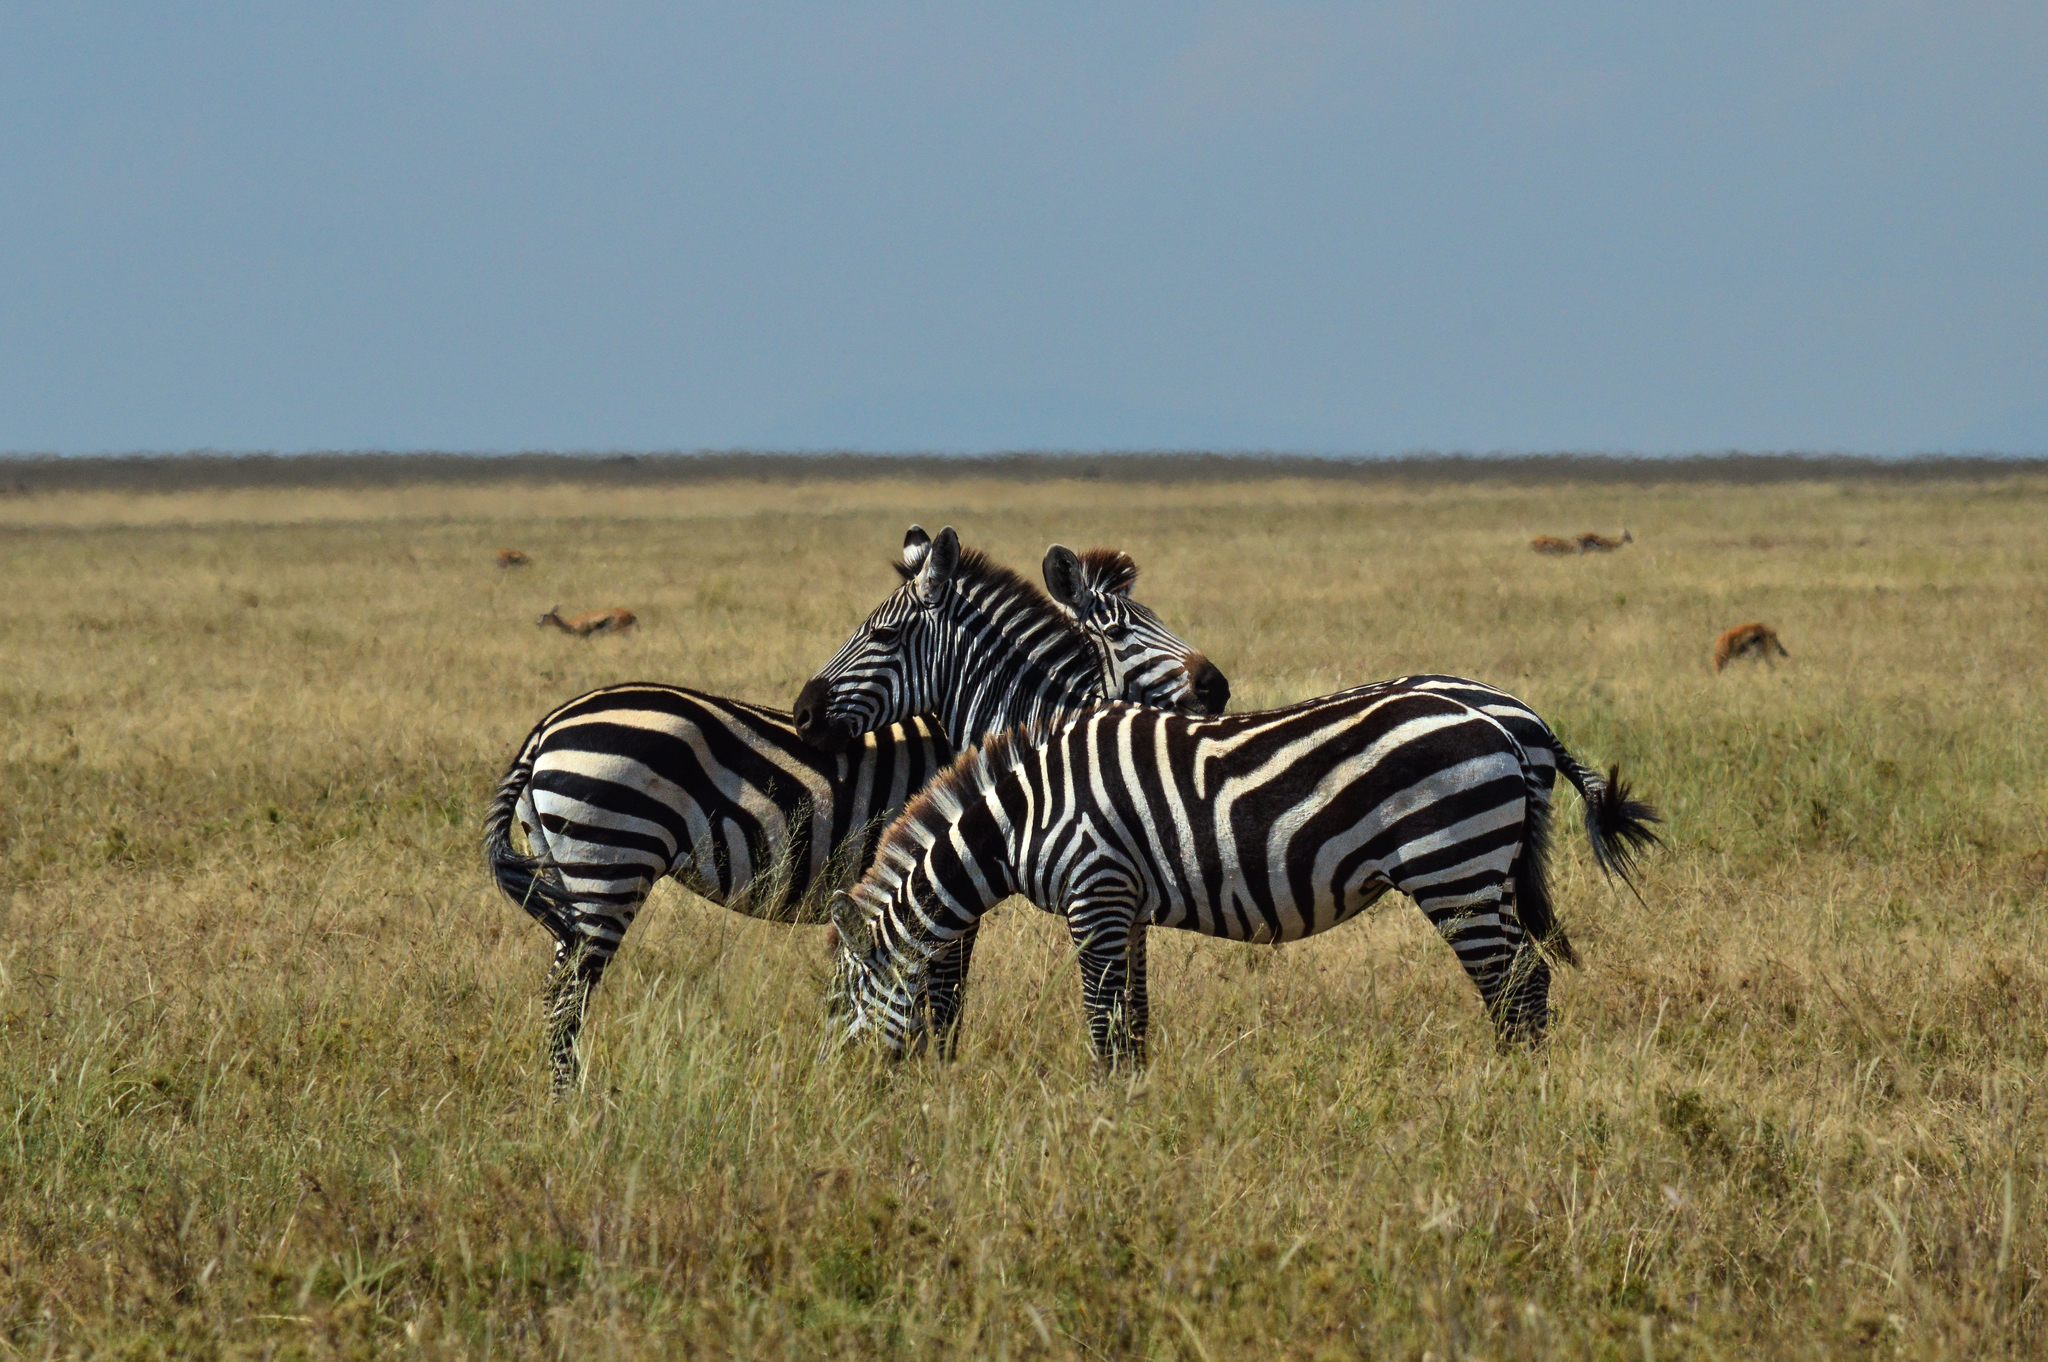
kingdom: Animalia
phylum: Chordata
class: Mammalia
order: Perissodactyla
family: Equidae
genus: Equus
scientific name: Equus quagga
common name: Plains zebra
